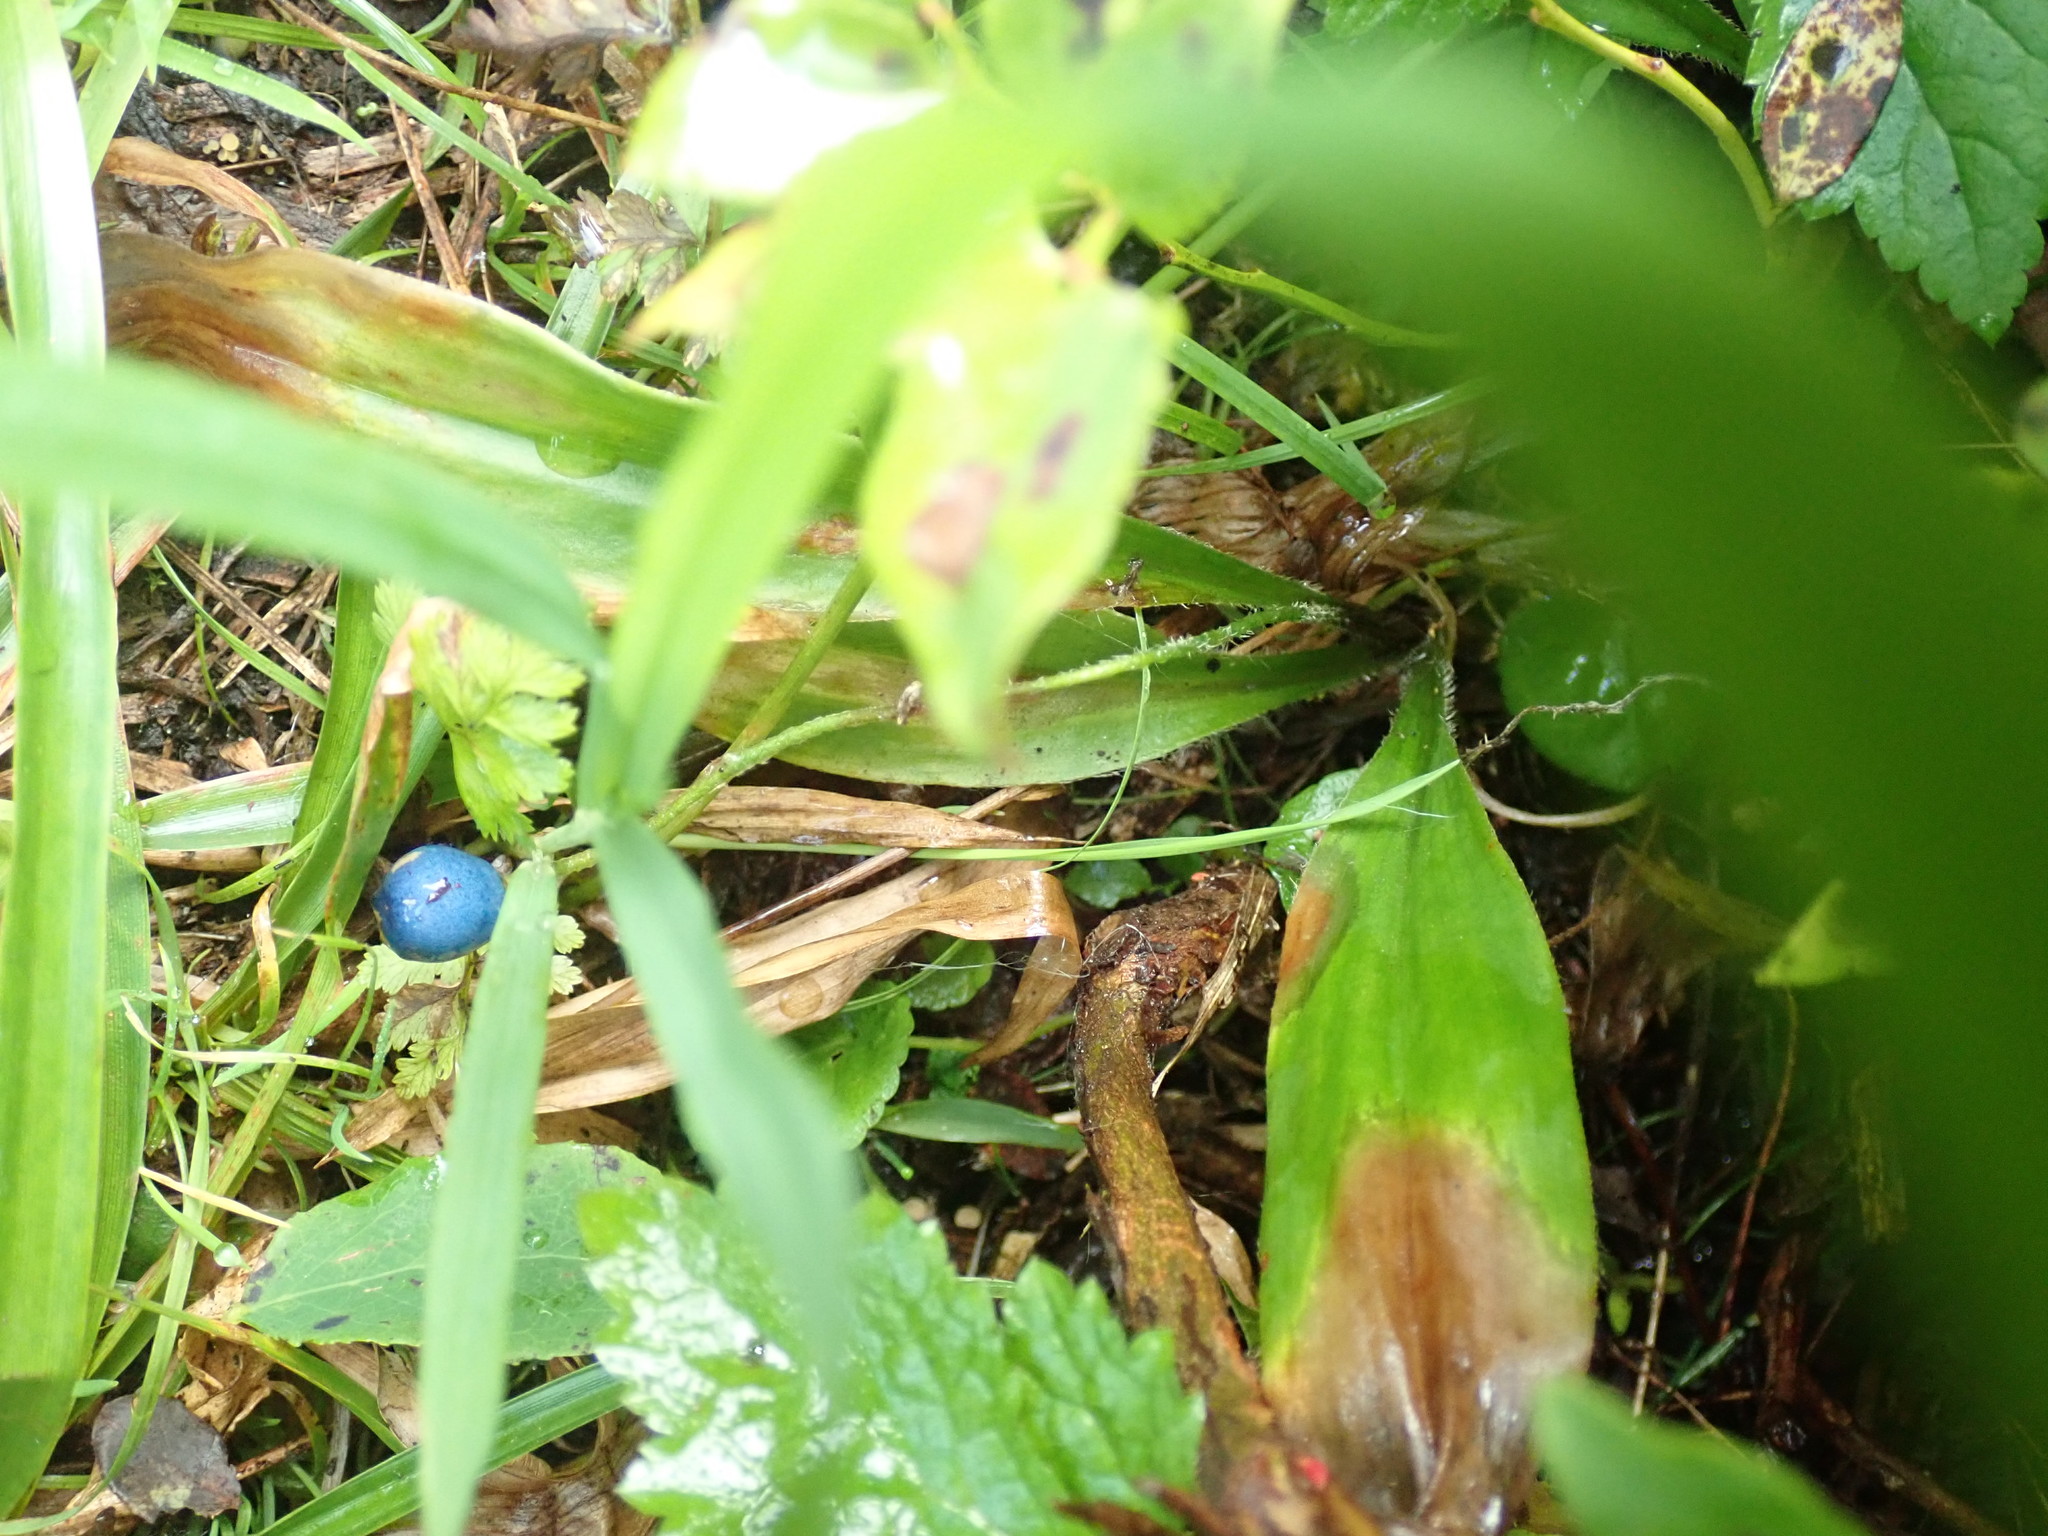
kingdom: Plantae
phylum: Tracheophyta
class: Liliopsida
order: Liliales
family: Liliaceae
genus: Clintonia
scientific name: Clintonia uniflora
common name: Queen's cup
